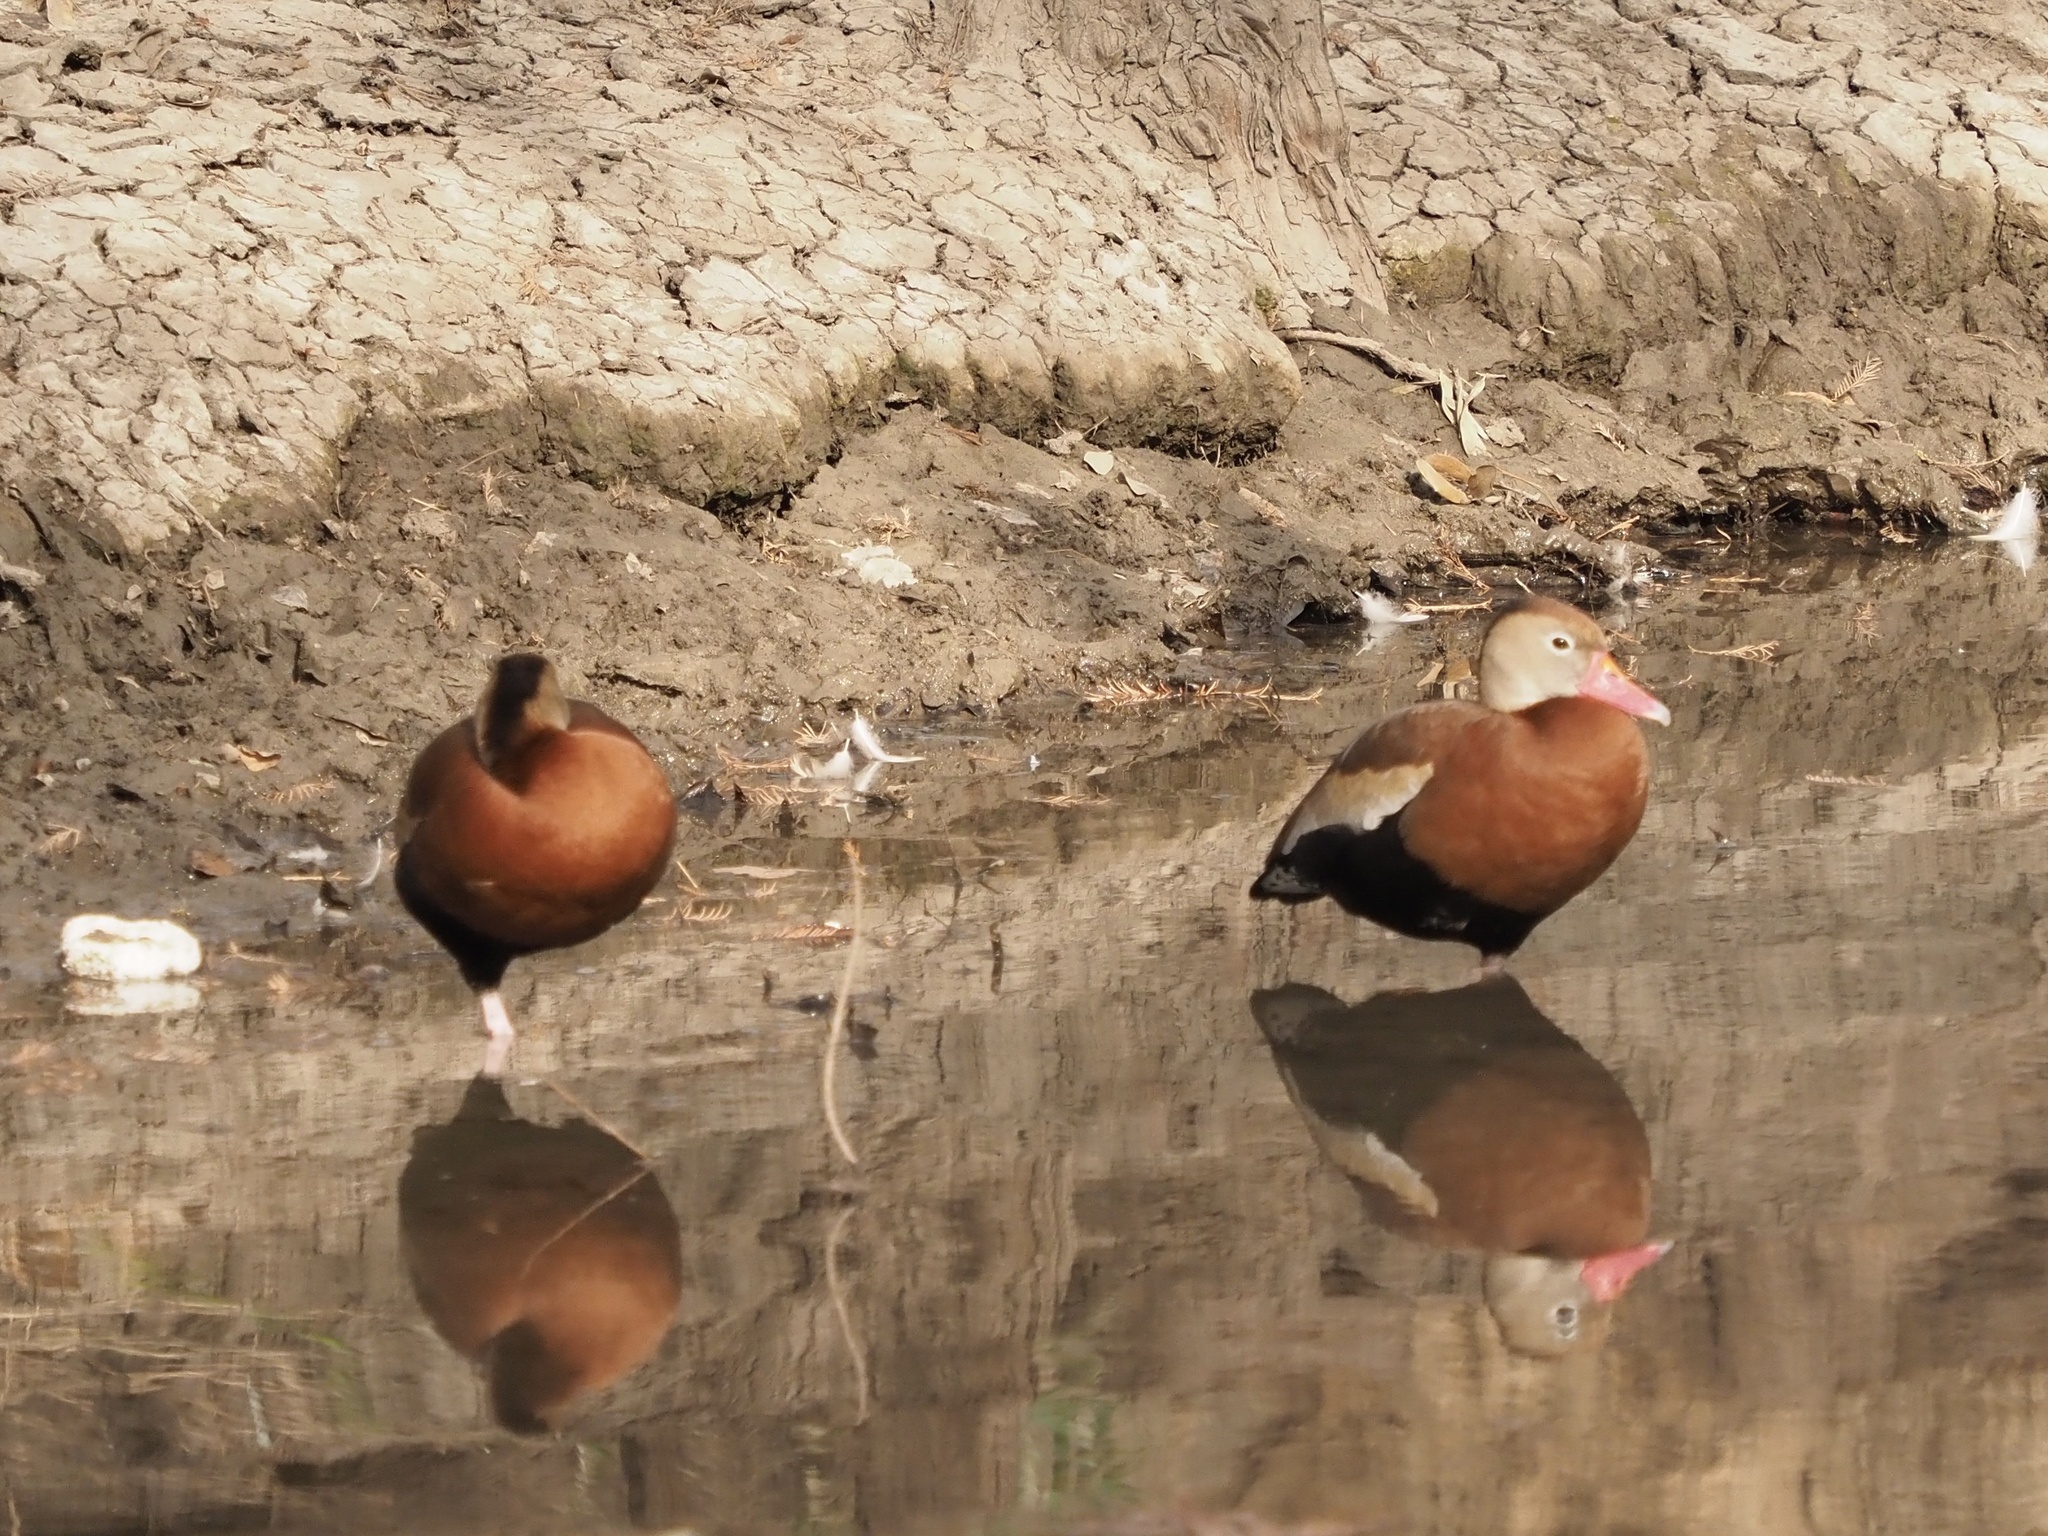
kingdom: Animalia
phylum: Chordata
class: Aves
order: Anseriformes
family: Anatidae
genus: Dendrocygna
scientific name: Dendrocygna autumnalis
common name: Black-bellied whistling duck
